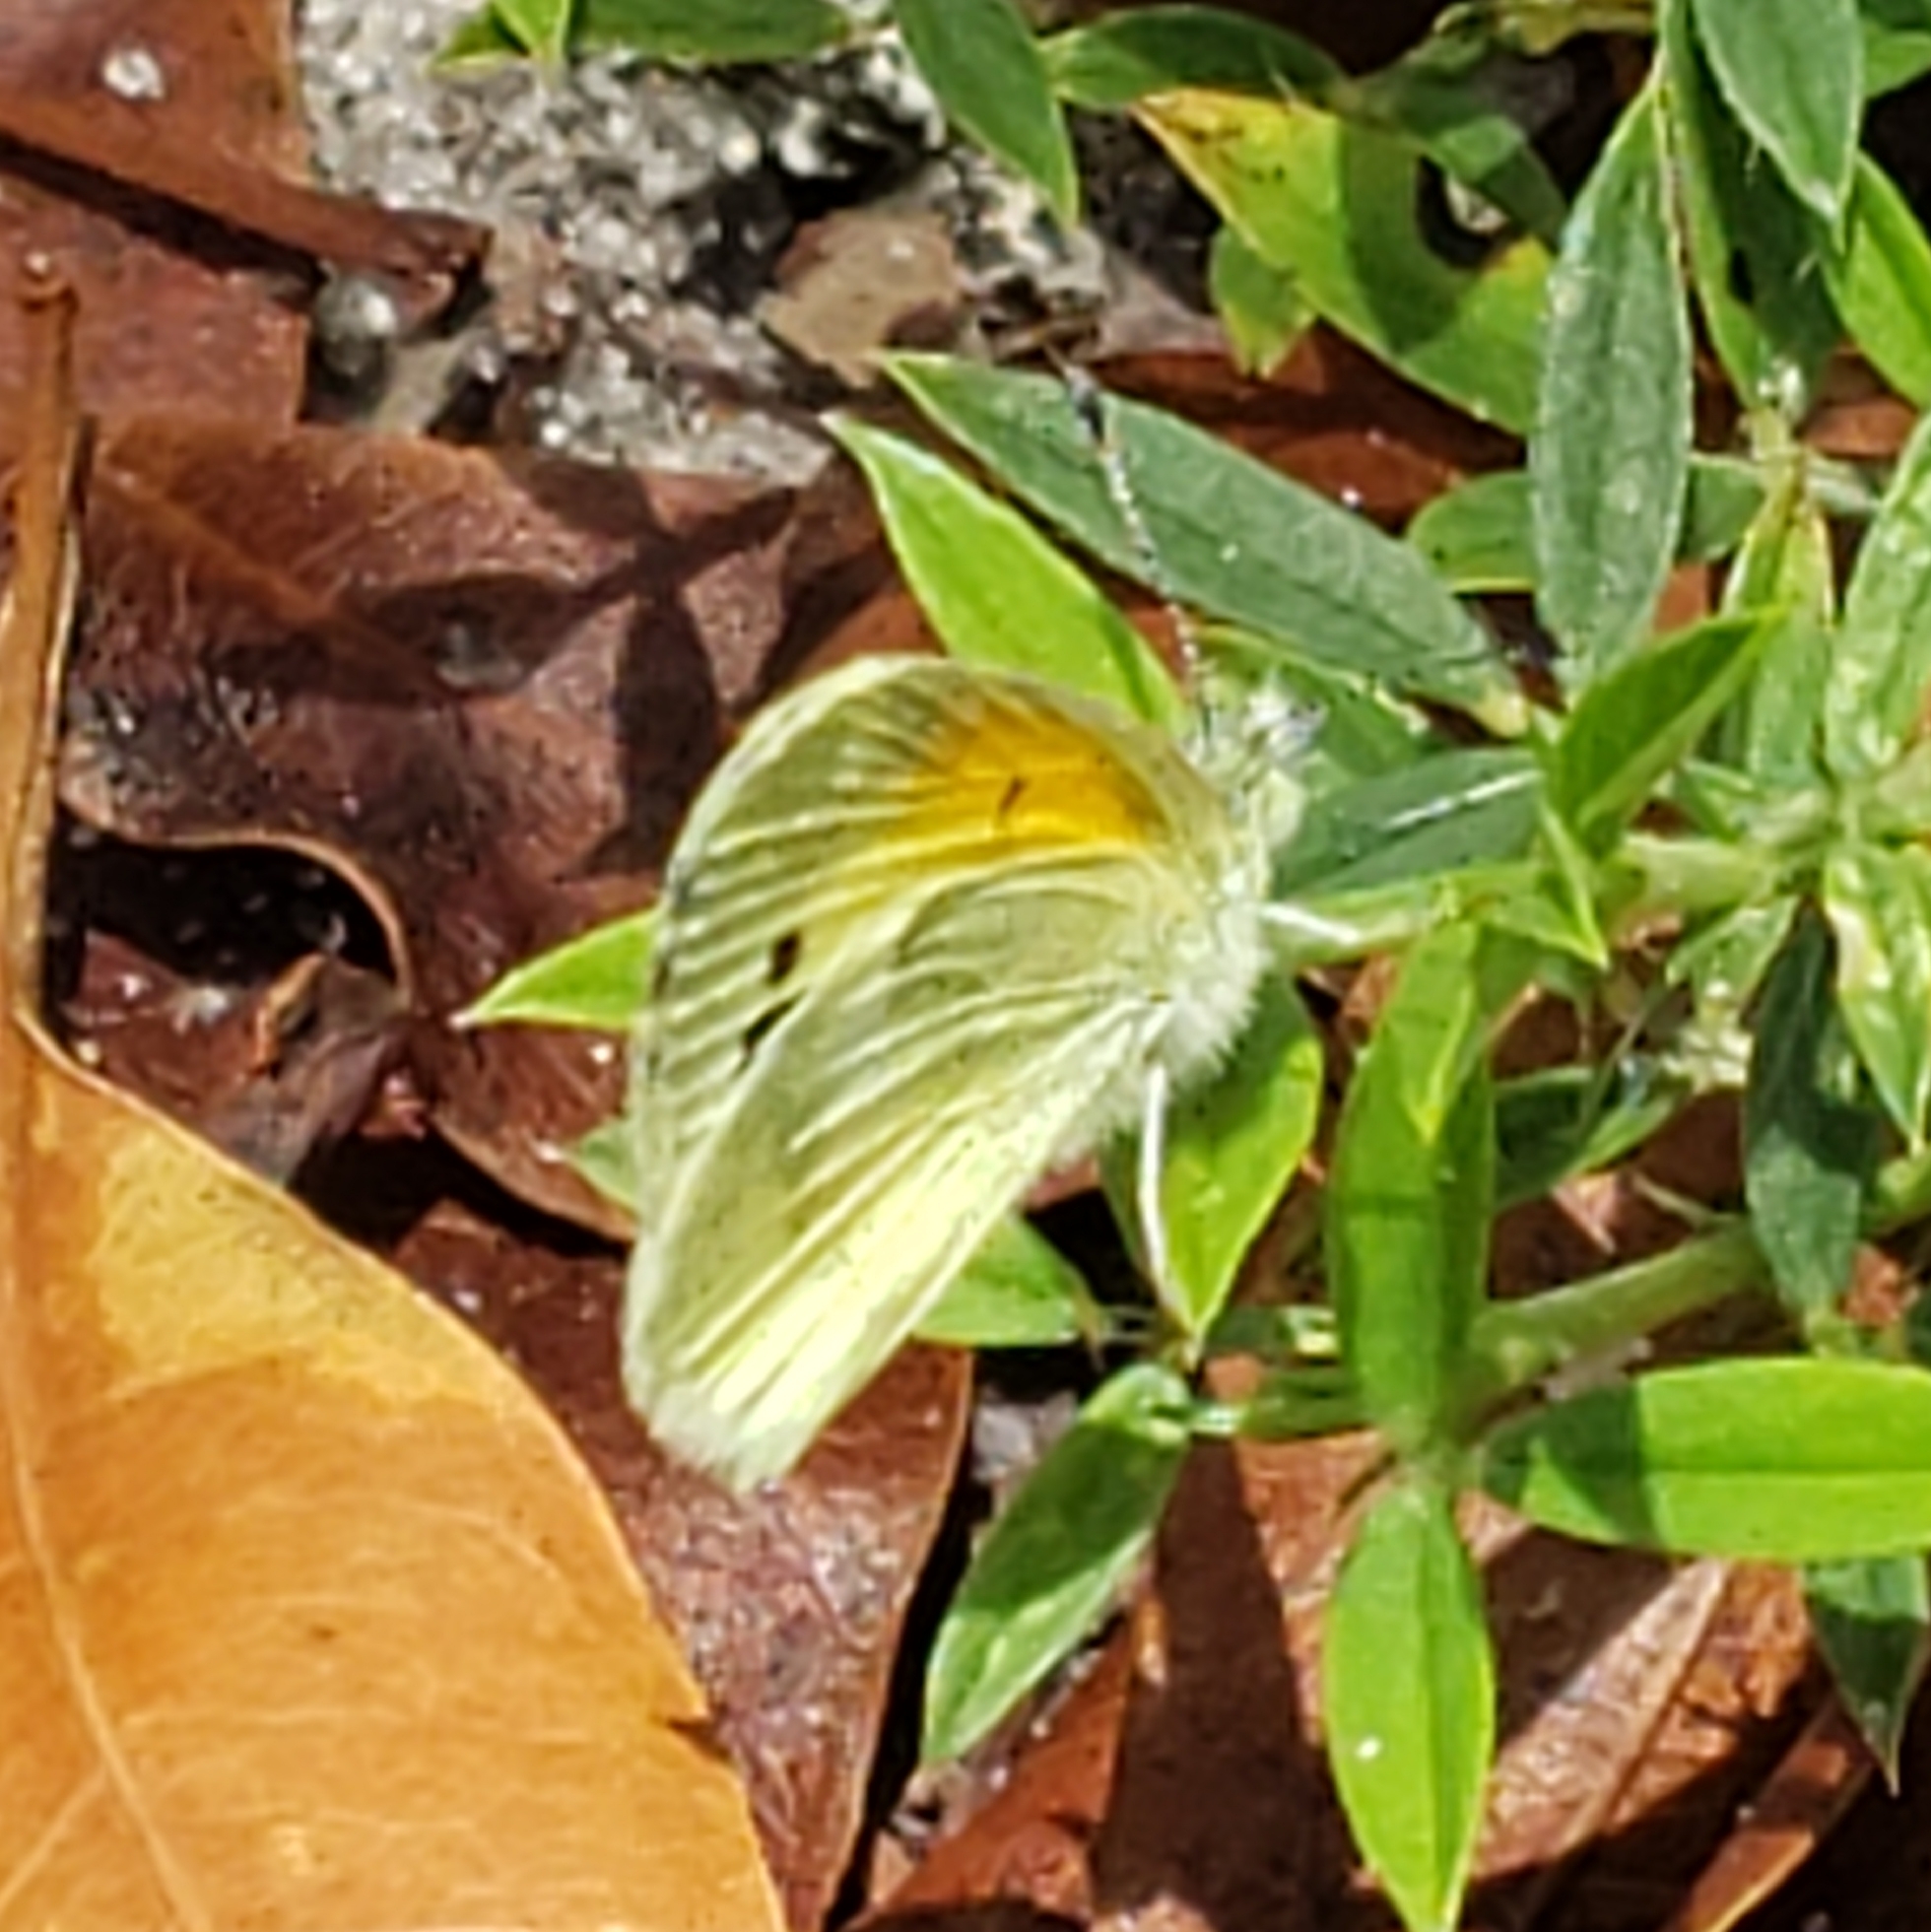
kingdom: Animalia
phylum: Arthropoda
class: Insecta
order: Lepidoptera
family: Pieridae
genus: Nathalis
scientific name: Nathalis iole
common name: Dainty sulphur
